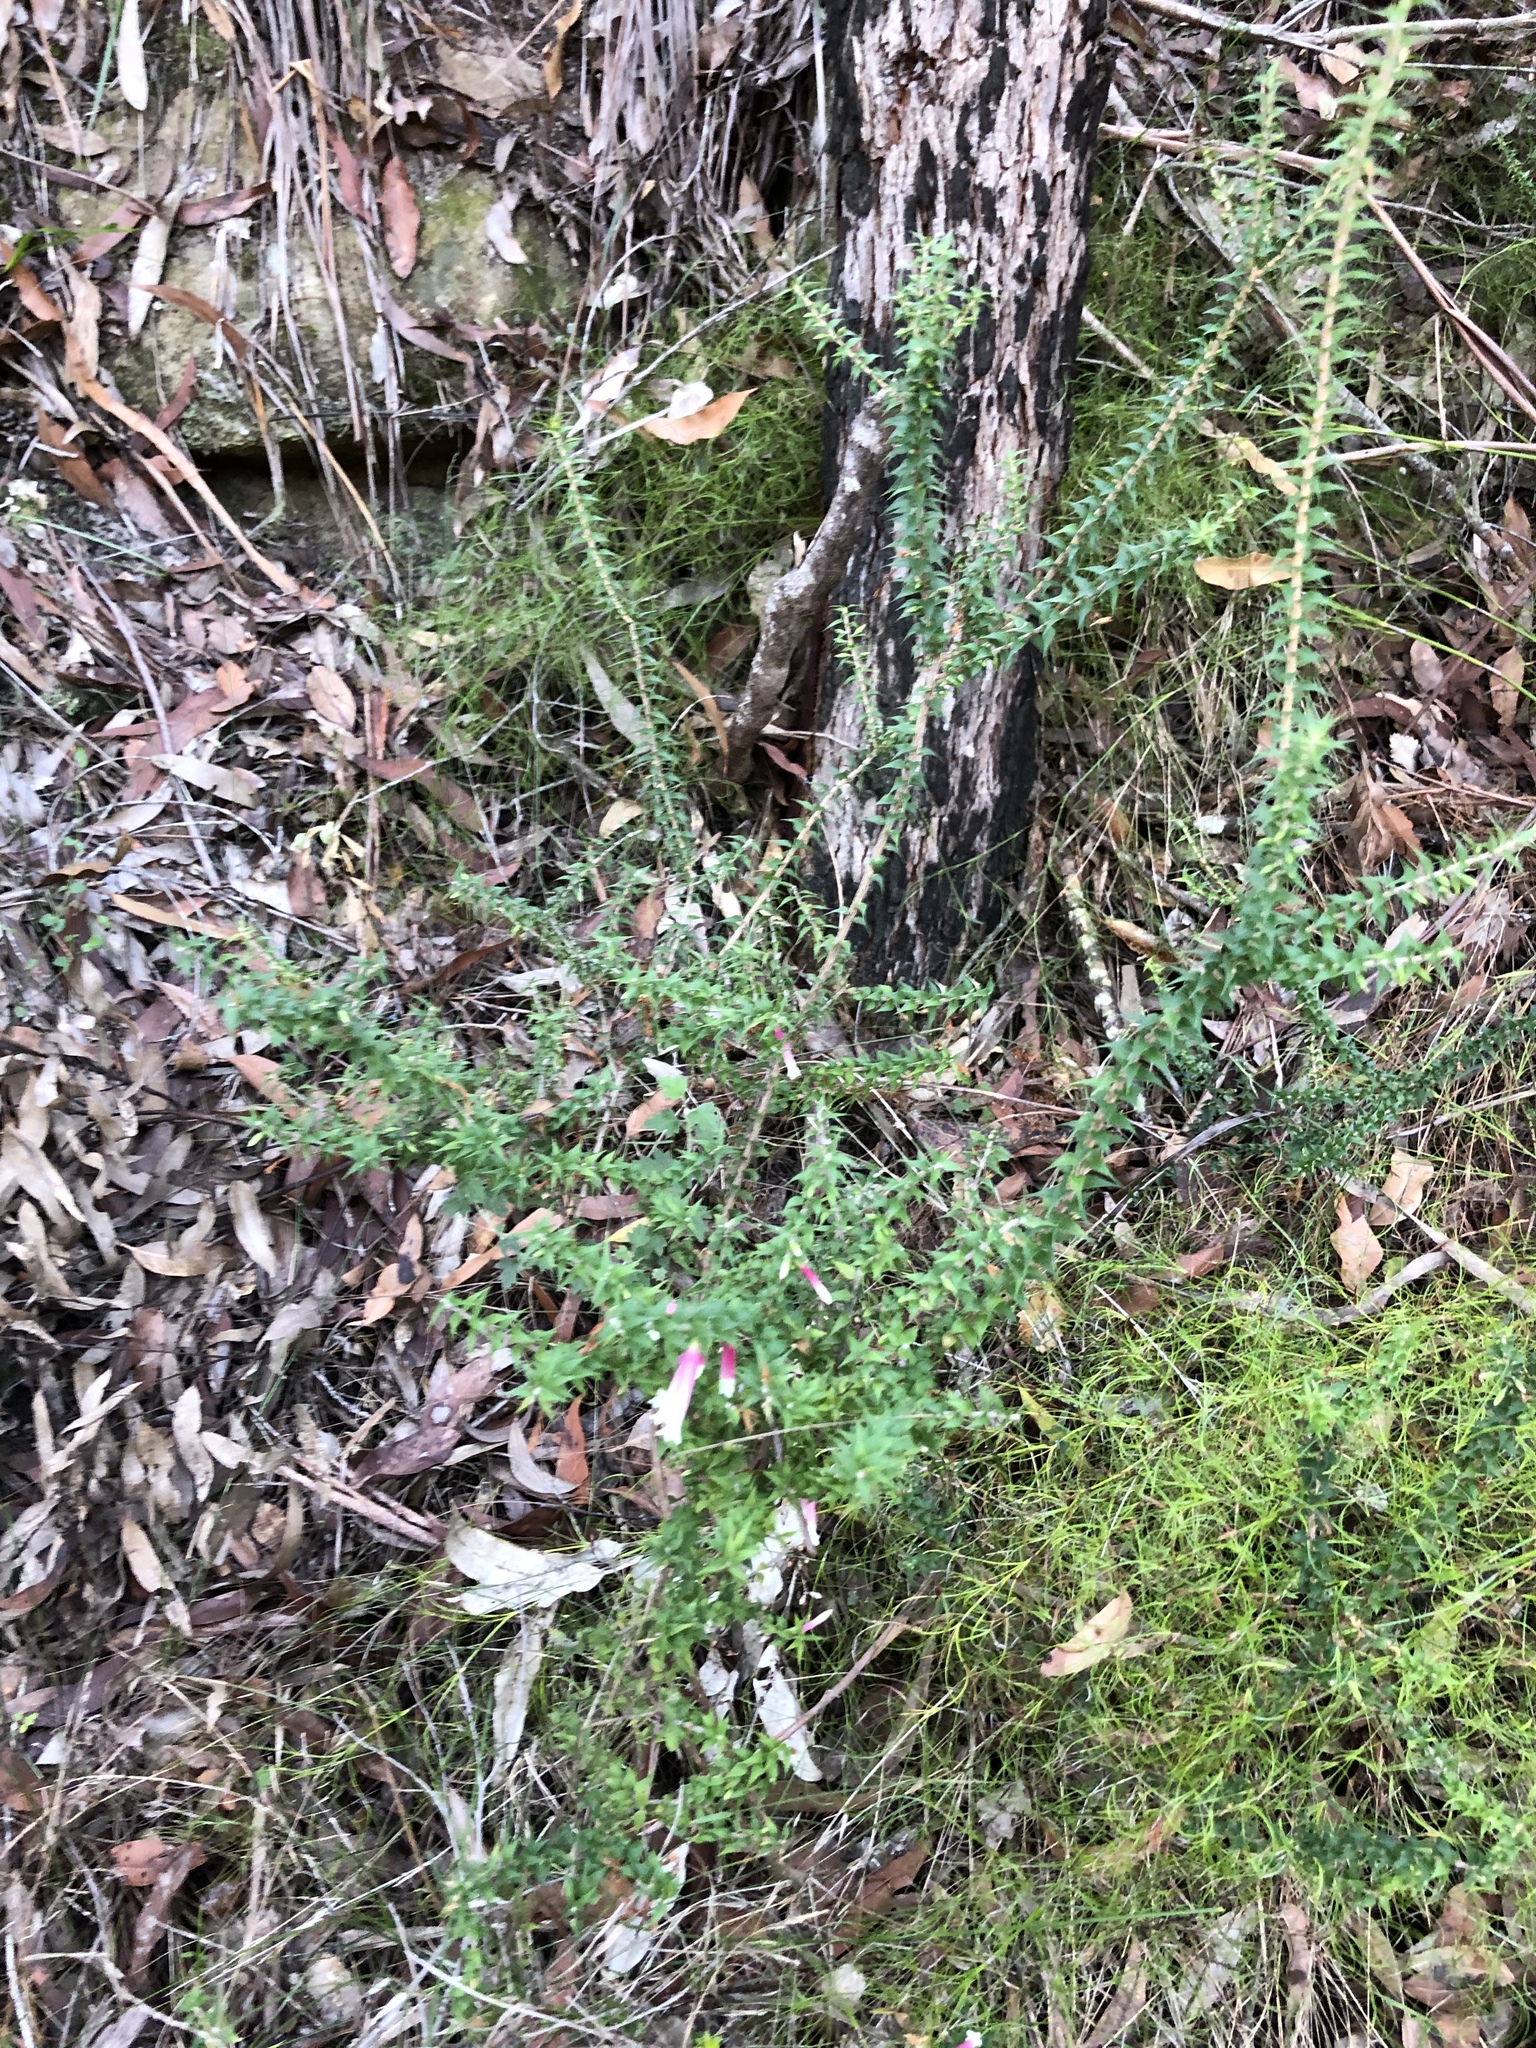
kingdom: Plantae
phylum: Tracheophyta
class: Magnoliopsida
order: Ericales
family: Ericaceae
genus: Epacris
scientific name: Epacris longiflora
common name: Fuchsia-heath
